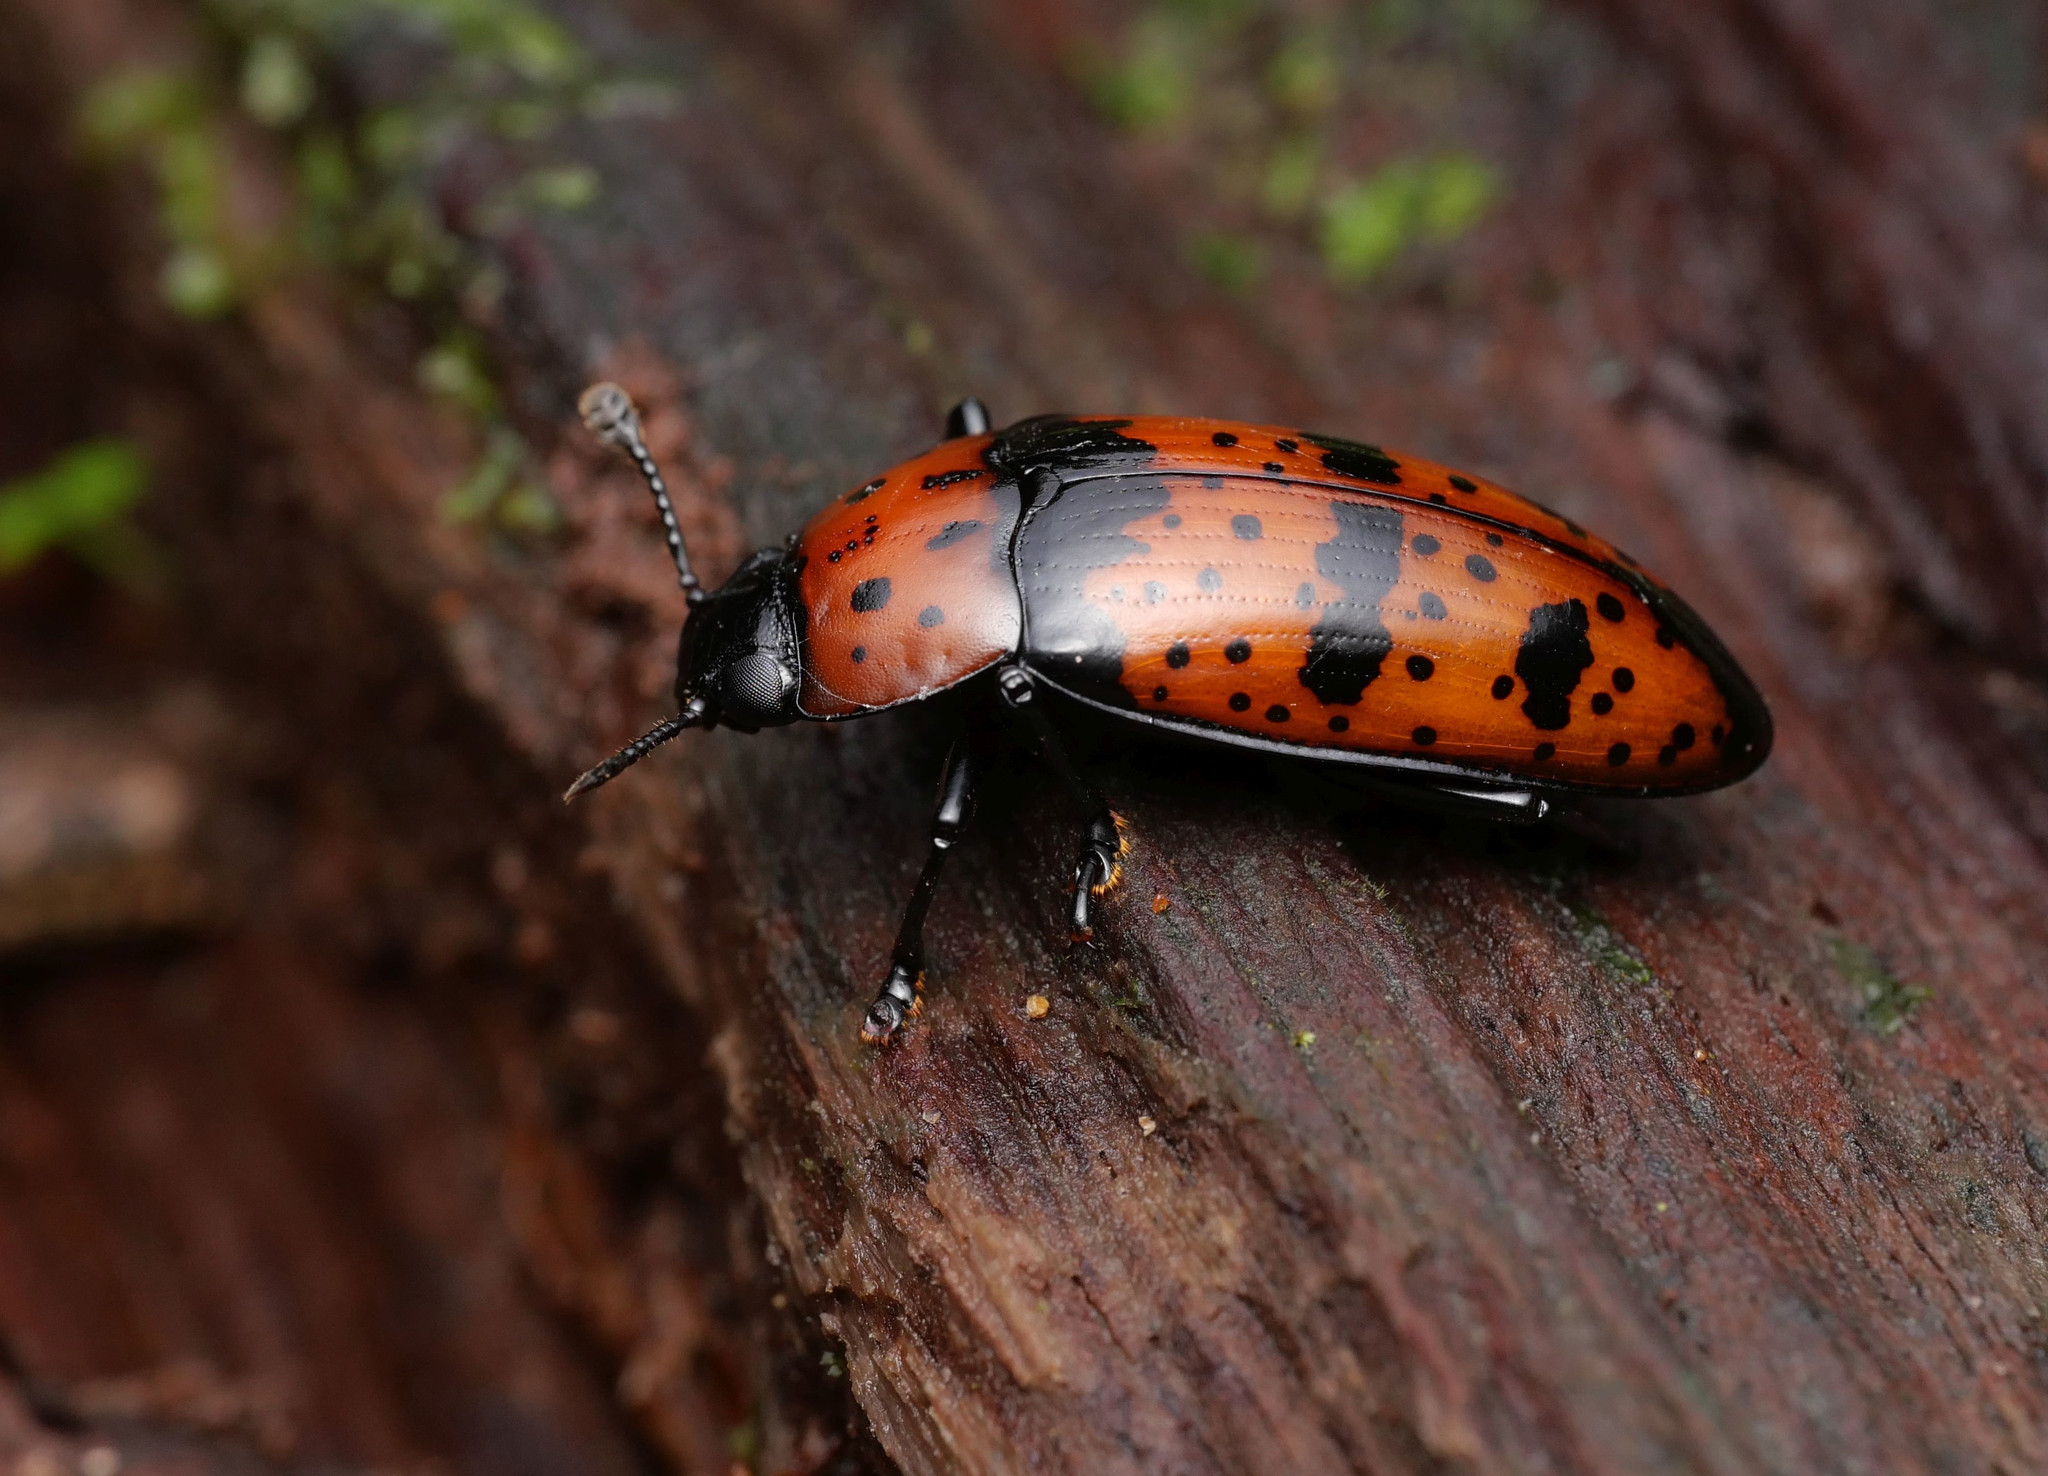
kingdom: Animalia
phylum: Arthropoda
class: Insecta
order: Coleoptera
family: Erotylidae
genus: Pselaphacus
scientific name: Pselaphacus
